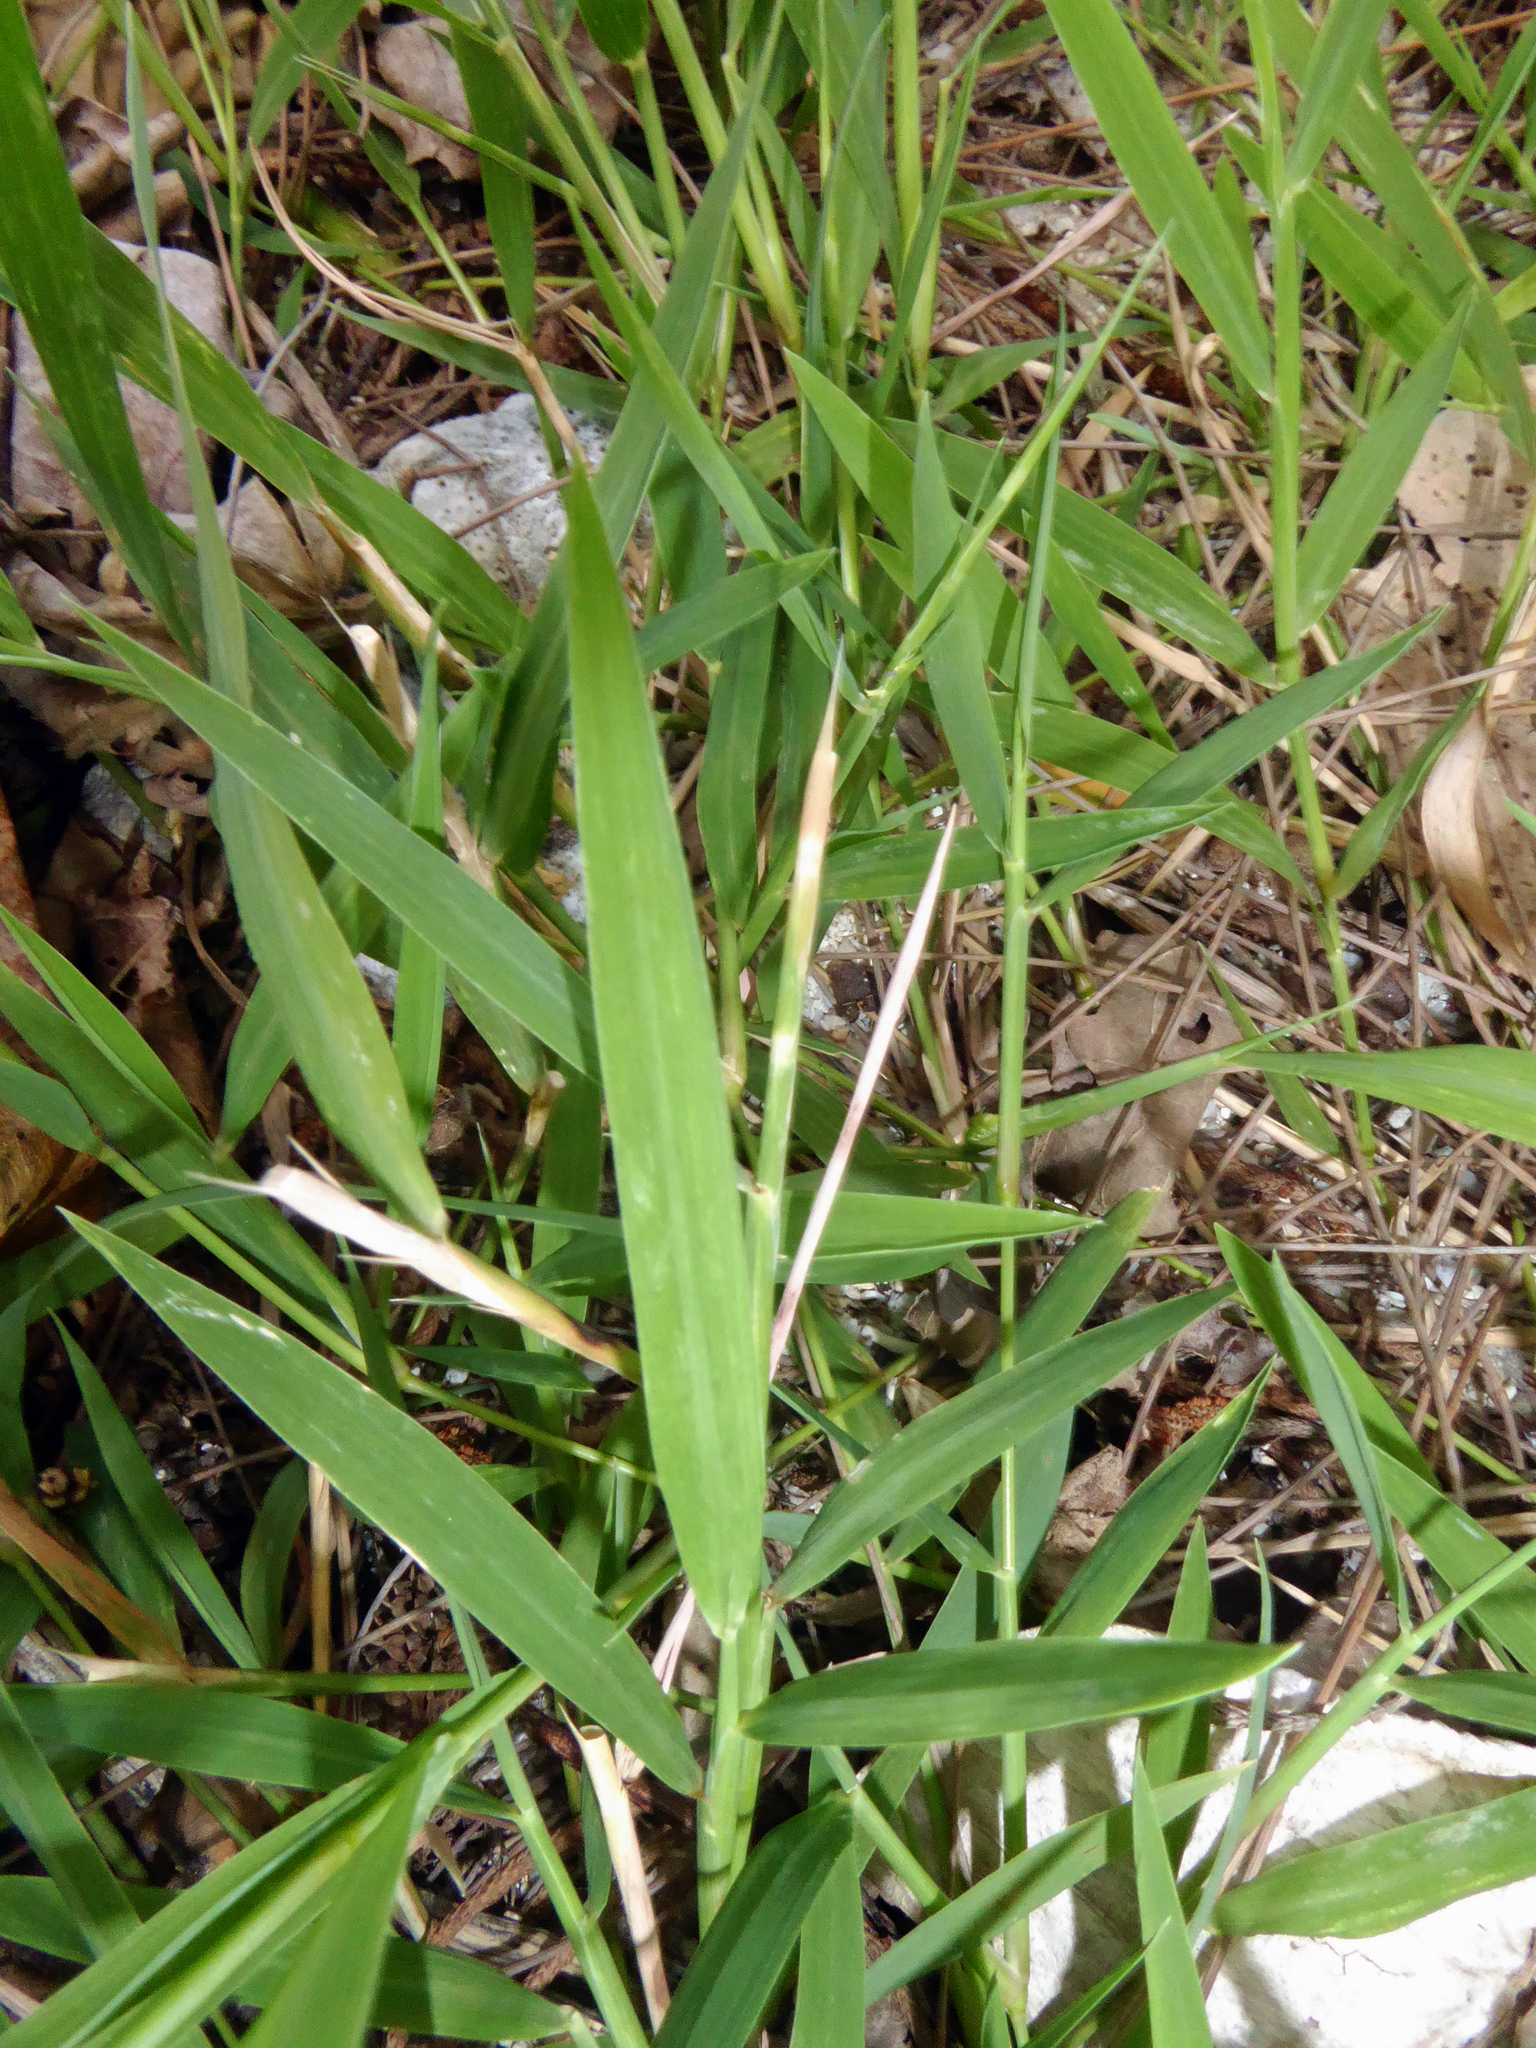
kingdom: Plantae
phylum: Tracheophyta
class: Liliopsida
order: Poales
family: Poaceae
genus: Lepturus
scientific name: Lepturus repens
